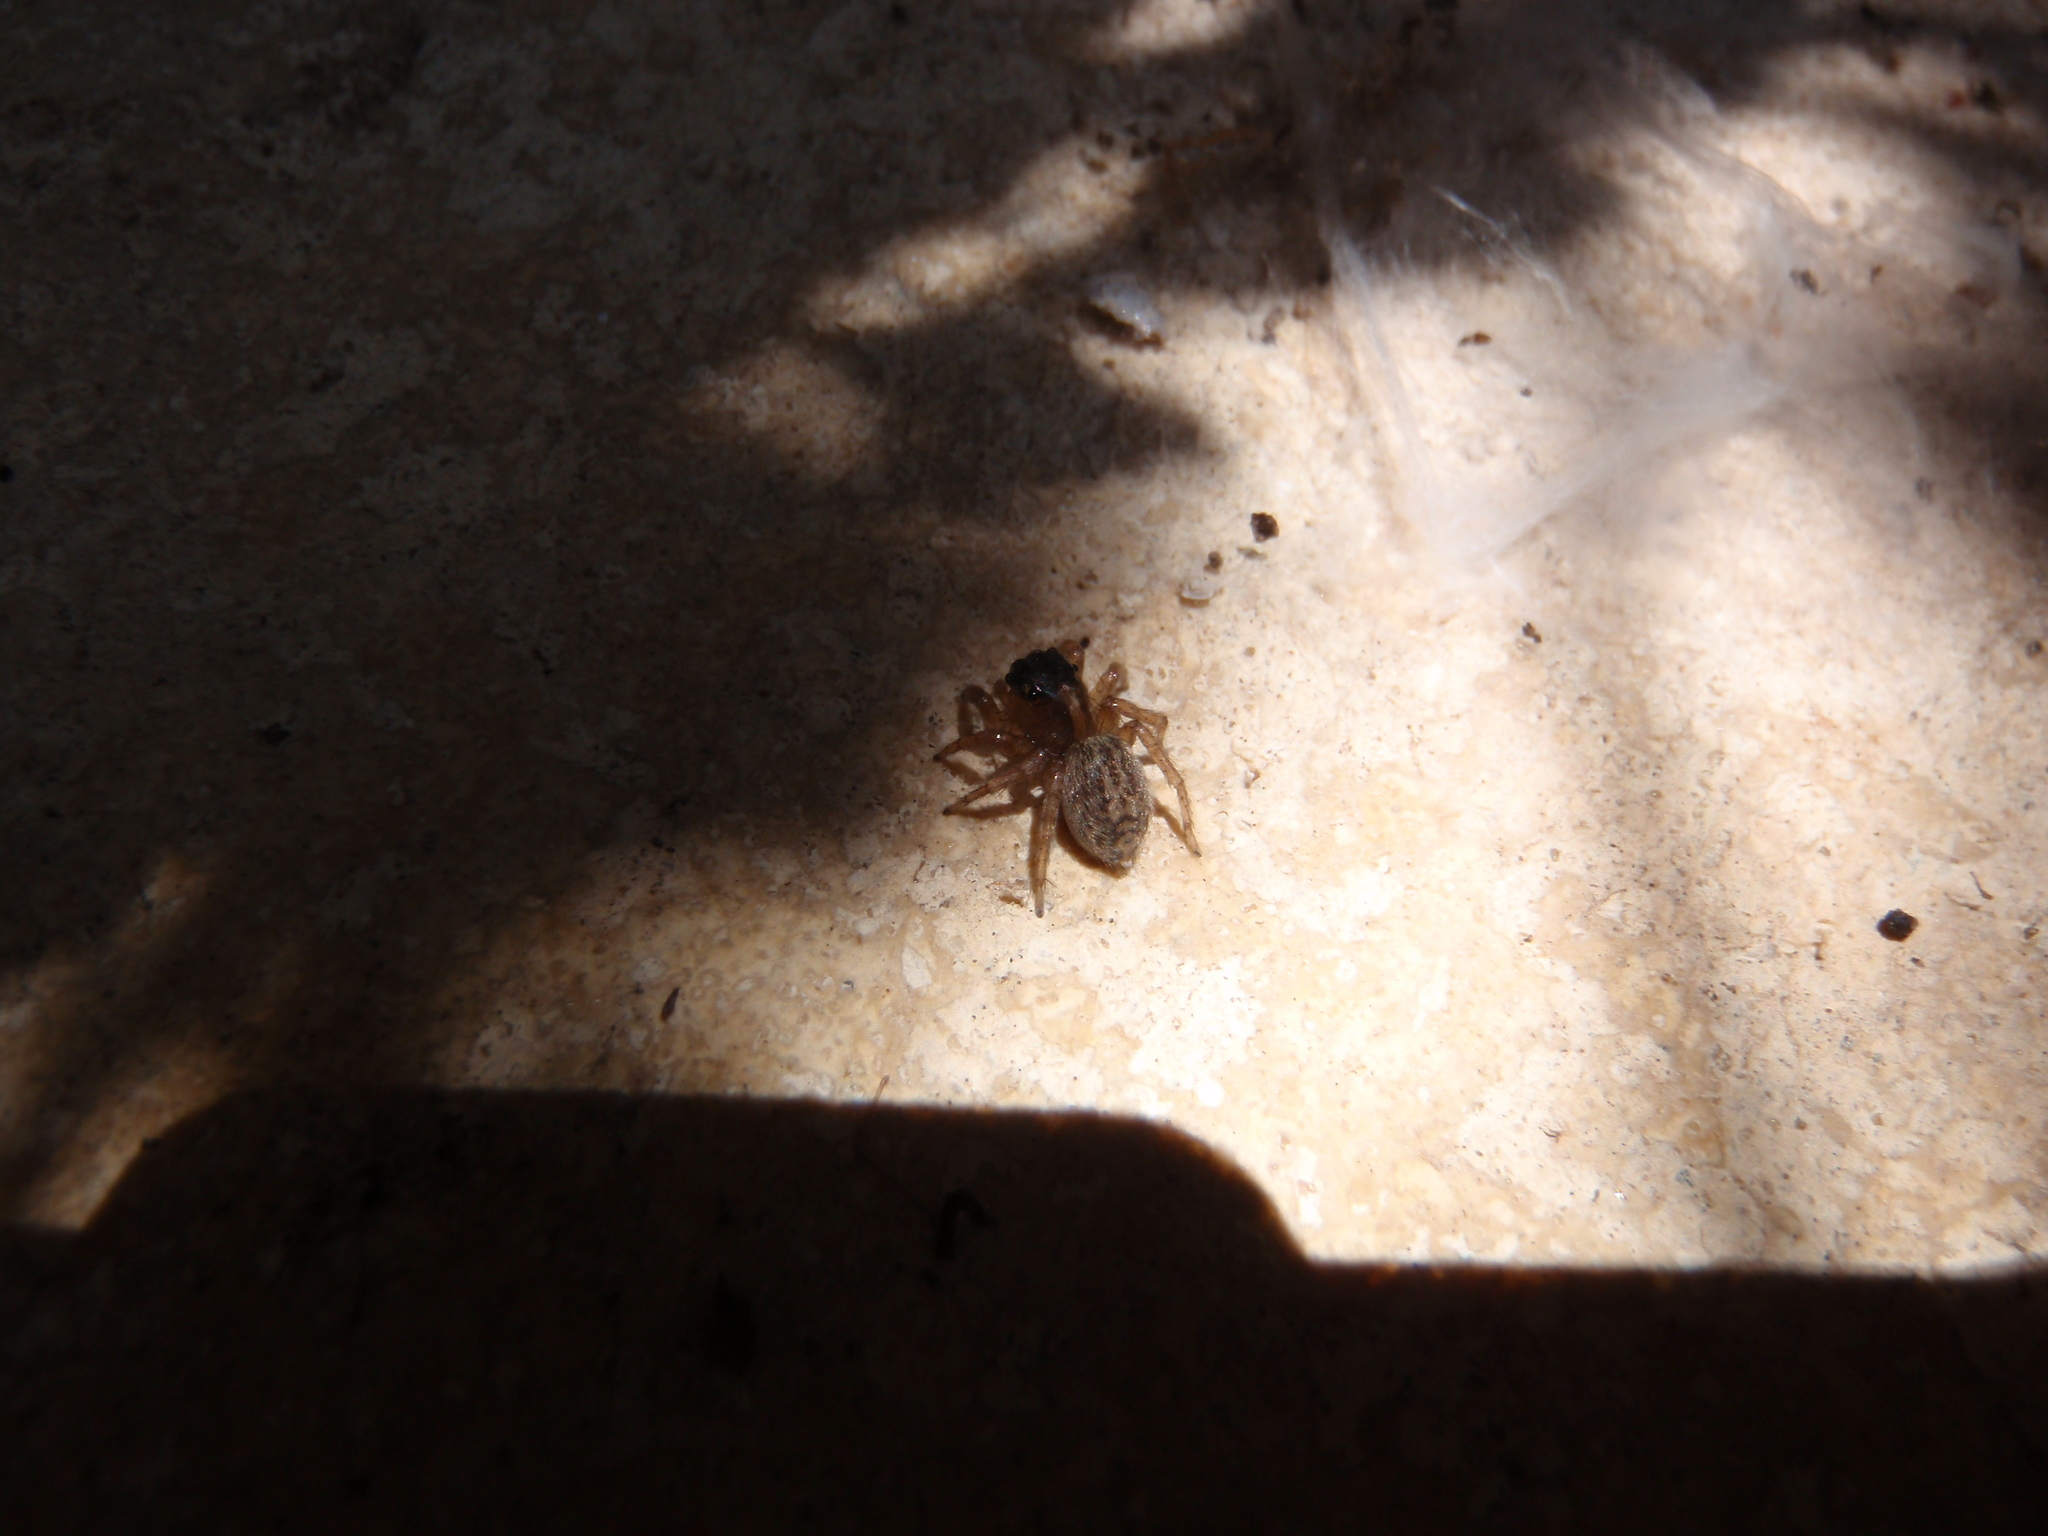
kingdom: Animalia
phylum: Arthropoda
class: Arachnida
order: Araneae
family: Salticidae
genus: Saitis
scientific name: Saitis barbipes
